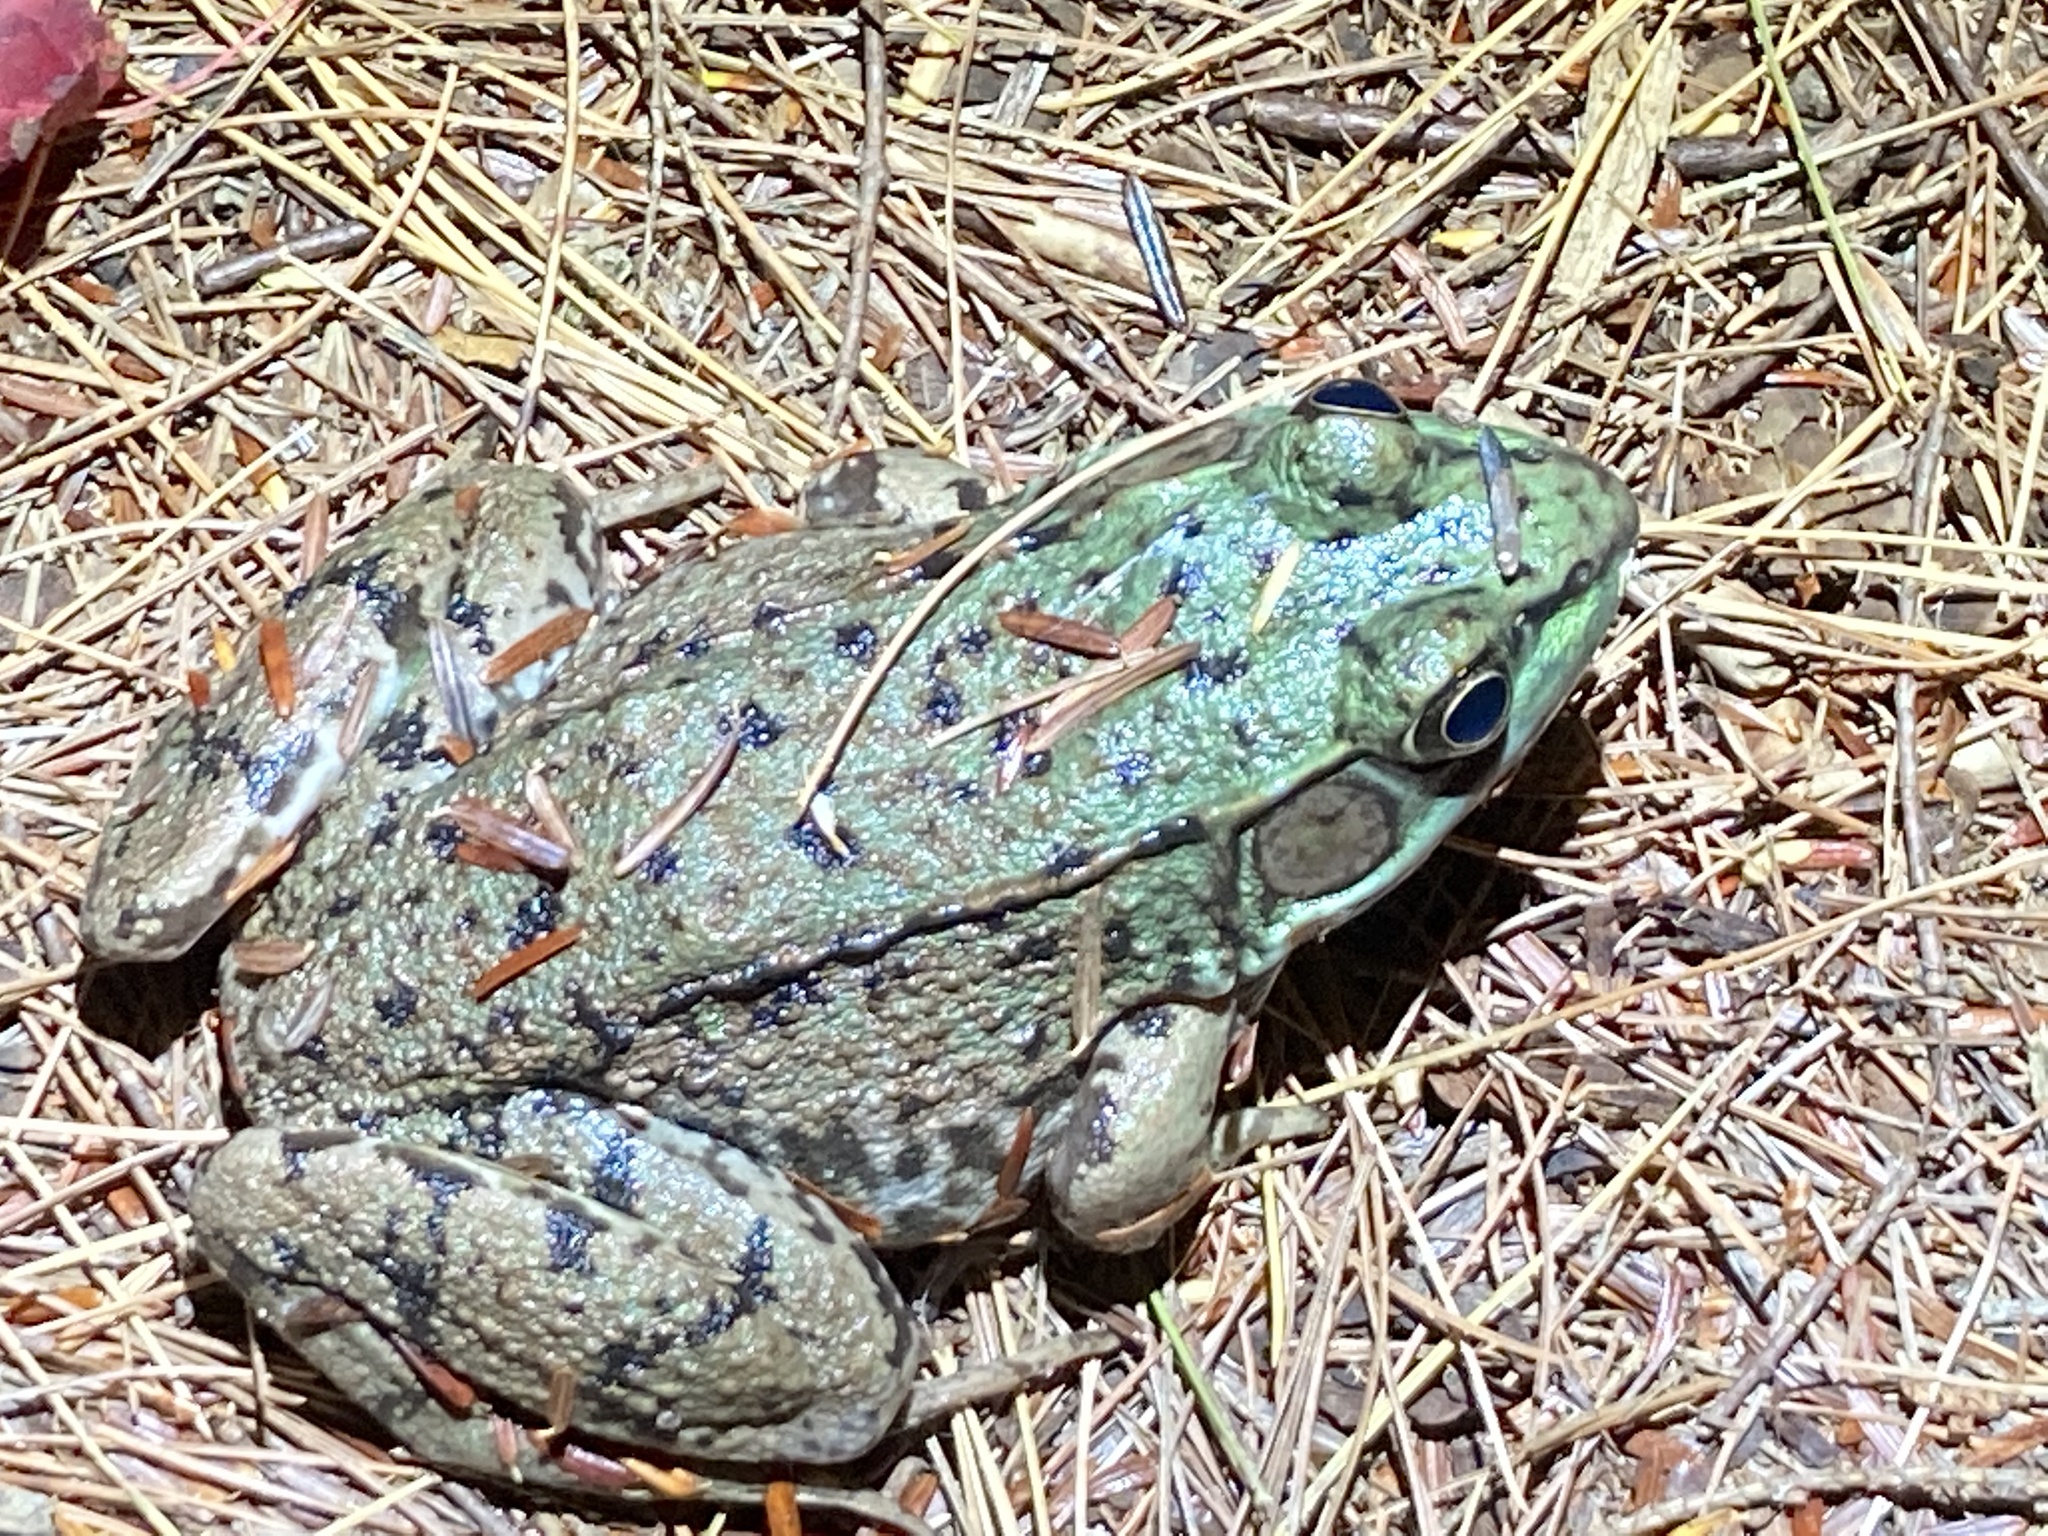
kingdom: Animalia
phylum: Chordata
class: Amphibia
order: Anura
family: Ranidae
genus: Lithobates
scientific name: Lithobates clamitans
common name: Green frog
